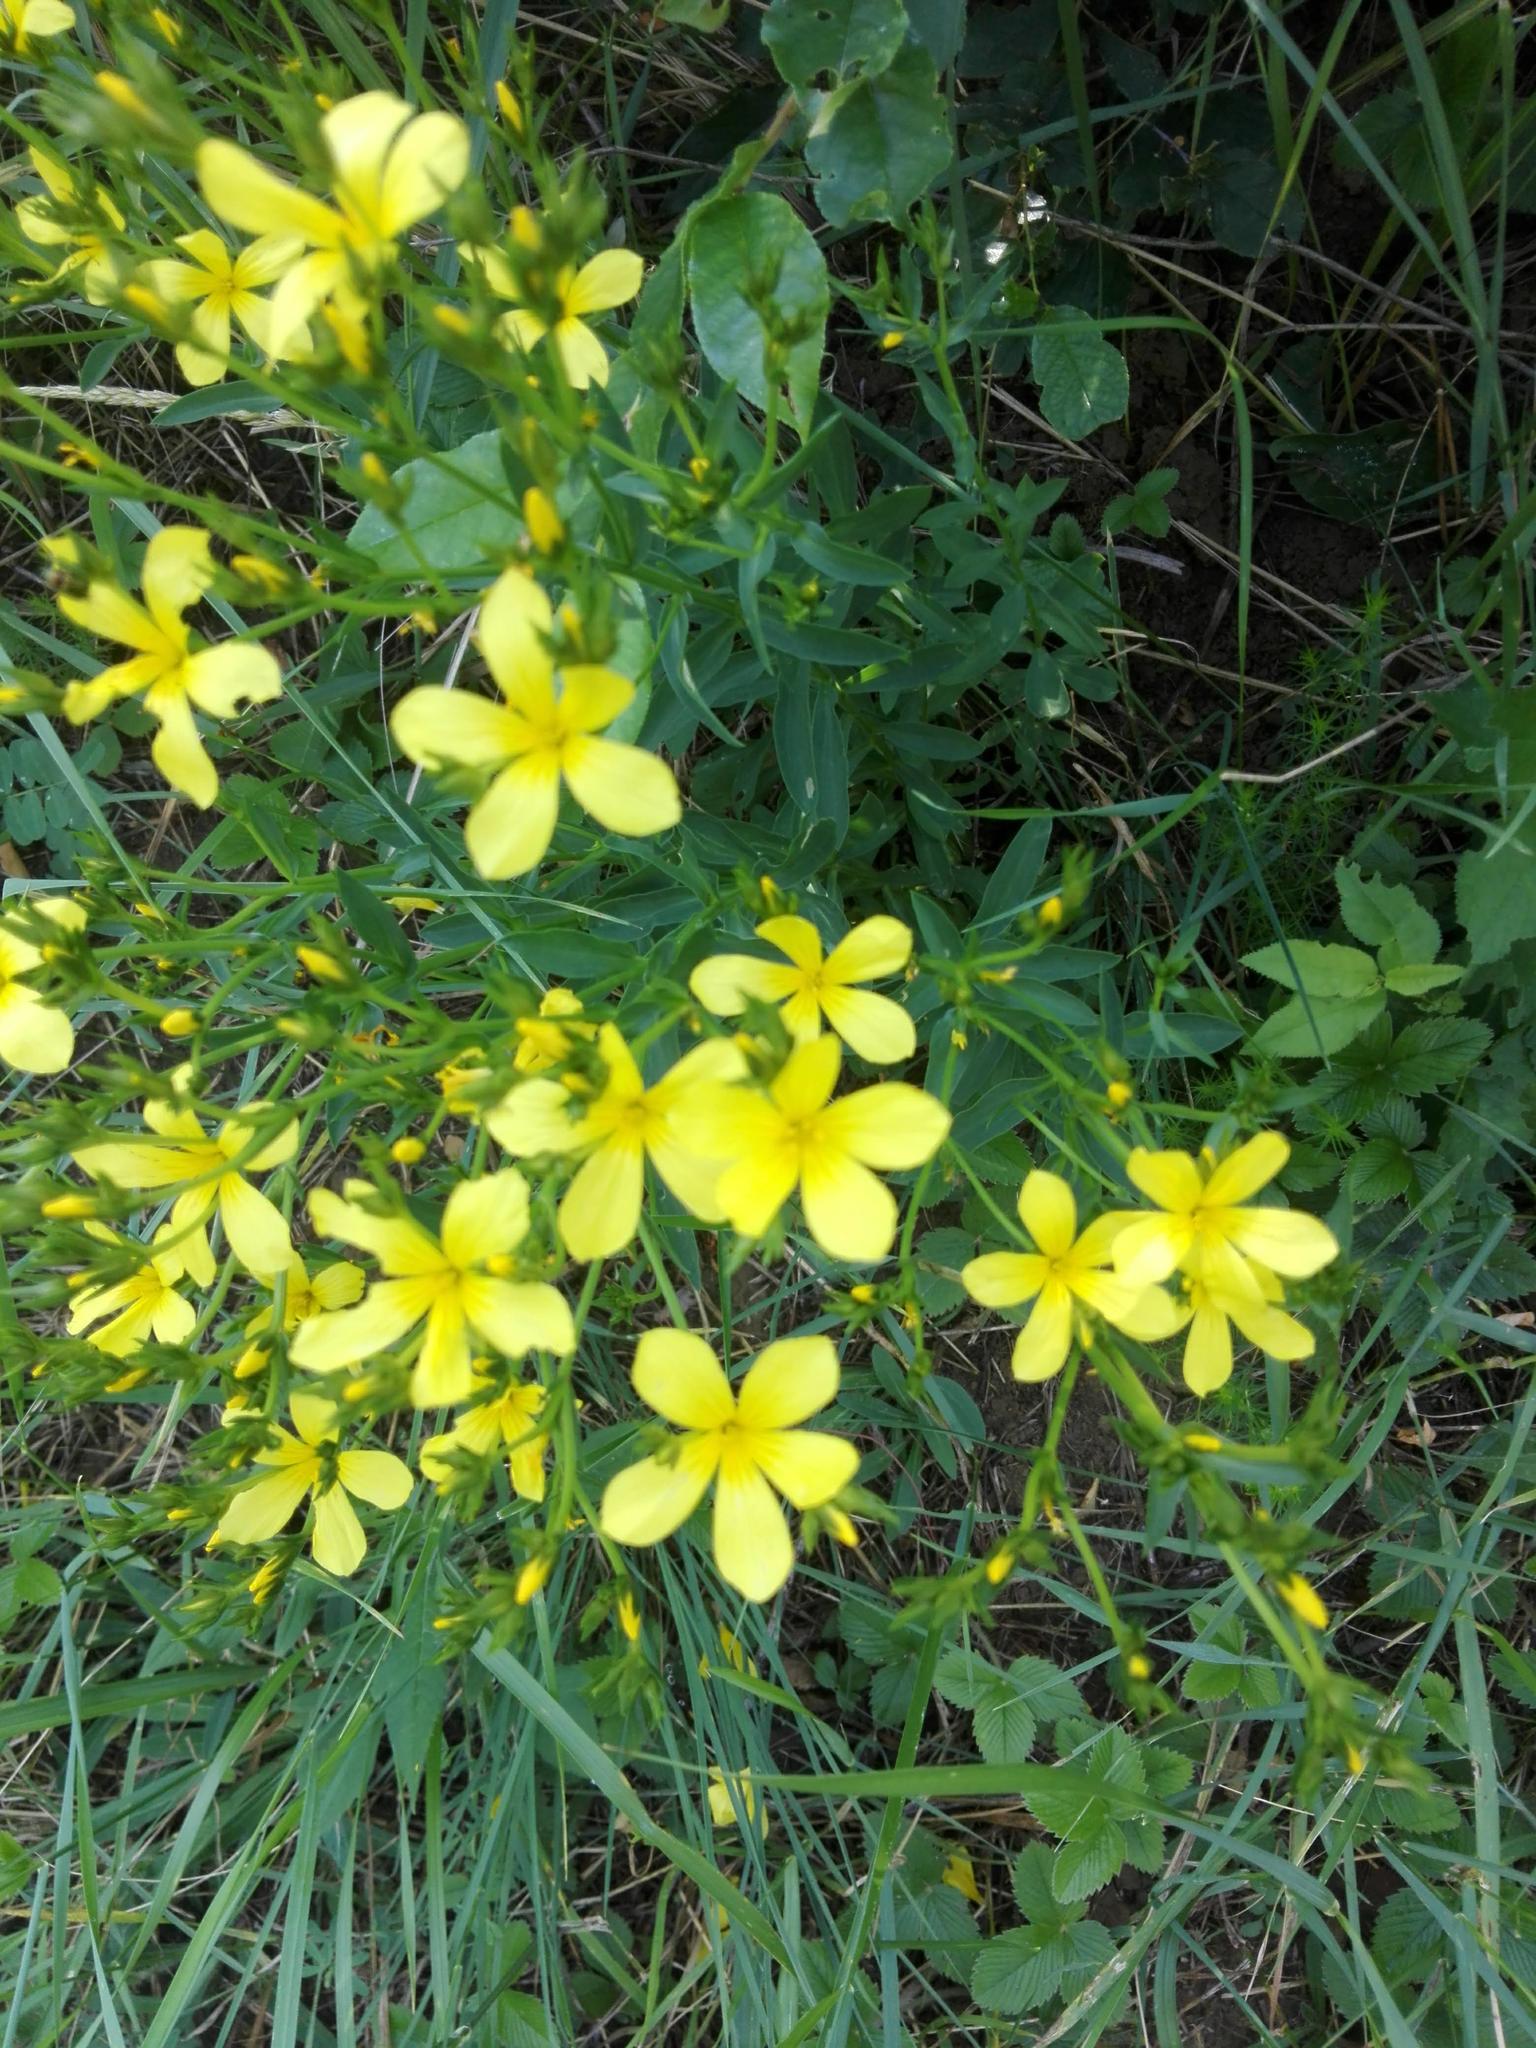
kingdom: Plantae
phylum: Tracheophyta
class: Magnoliopsida
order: Malpighiales
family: Linaceae
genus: Linum
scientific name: Linum flavum
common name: Yellow flax
